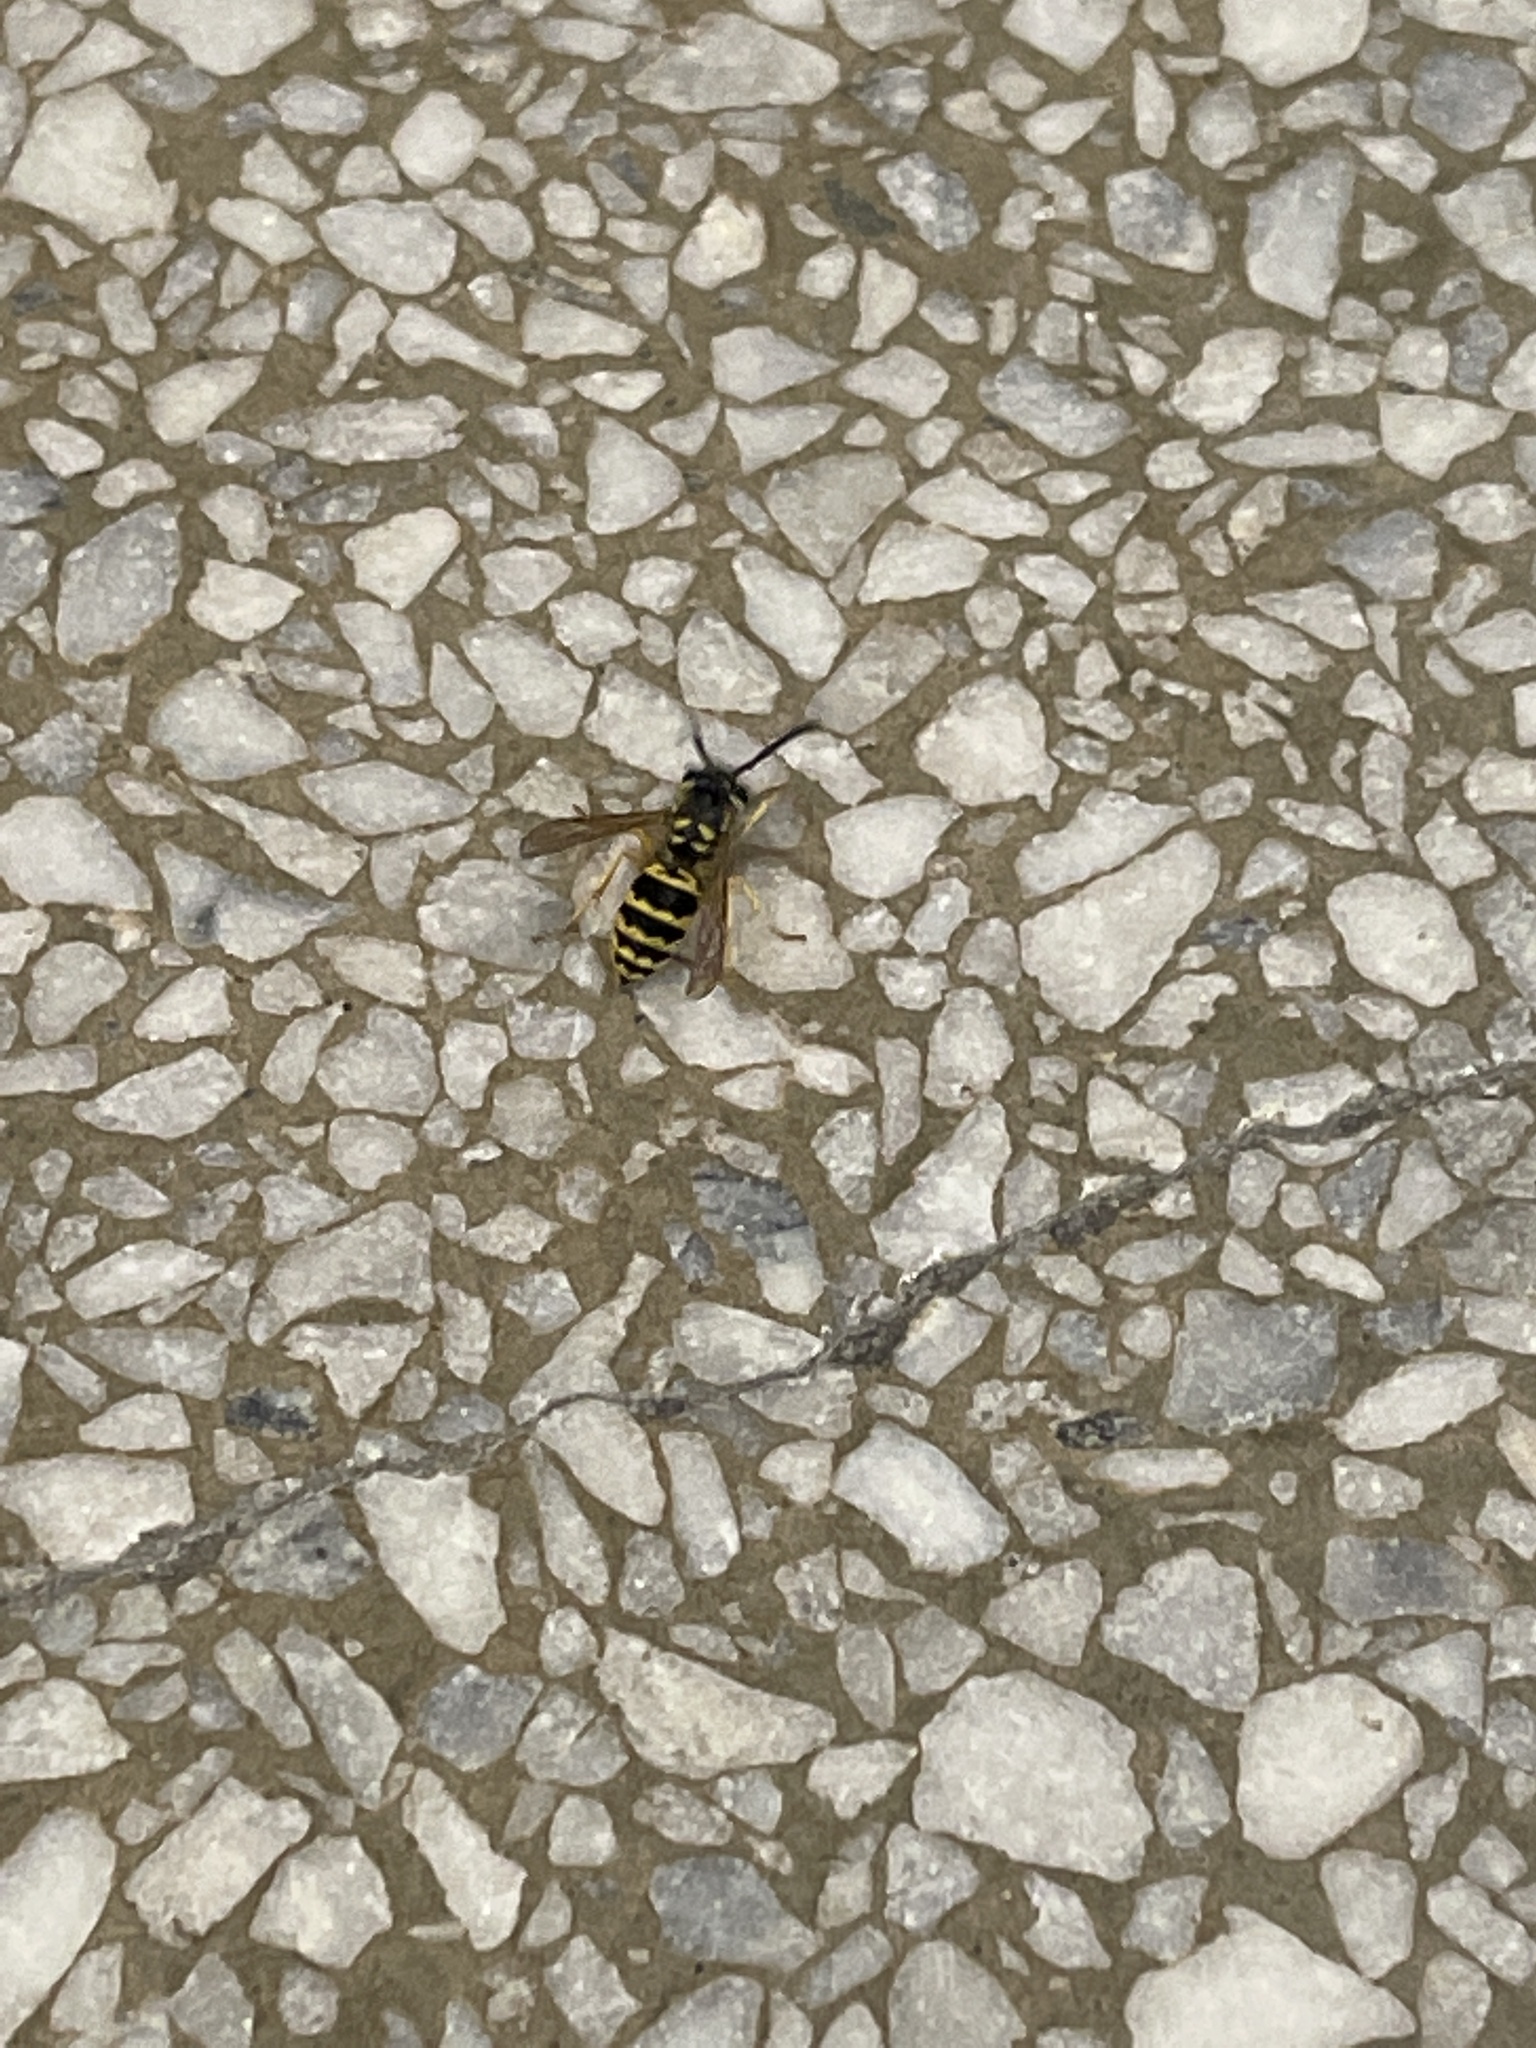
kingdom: Animalia
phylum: Arthropoda
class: Insecta
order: Hymenoptera
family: Vespidae
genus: Vespula
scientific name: Vespula maculifrons
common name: Eastern yellowjacket
